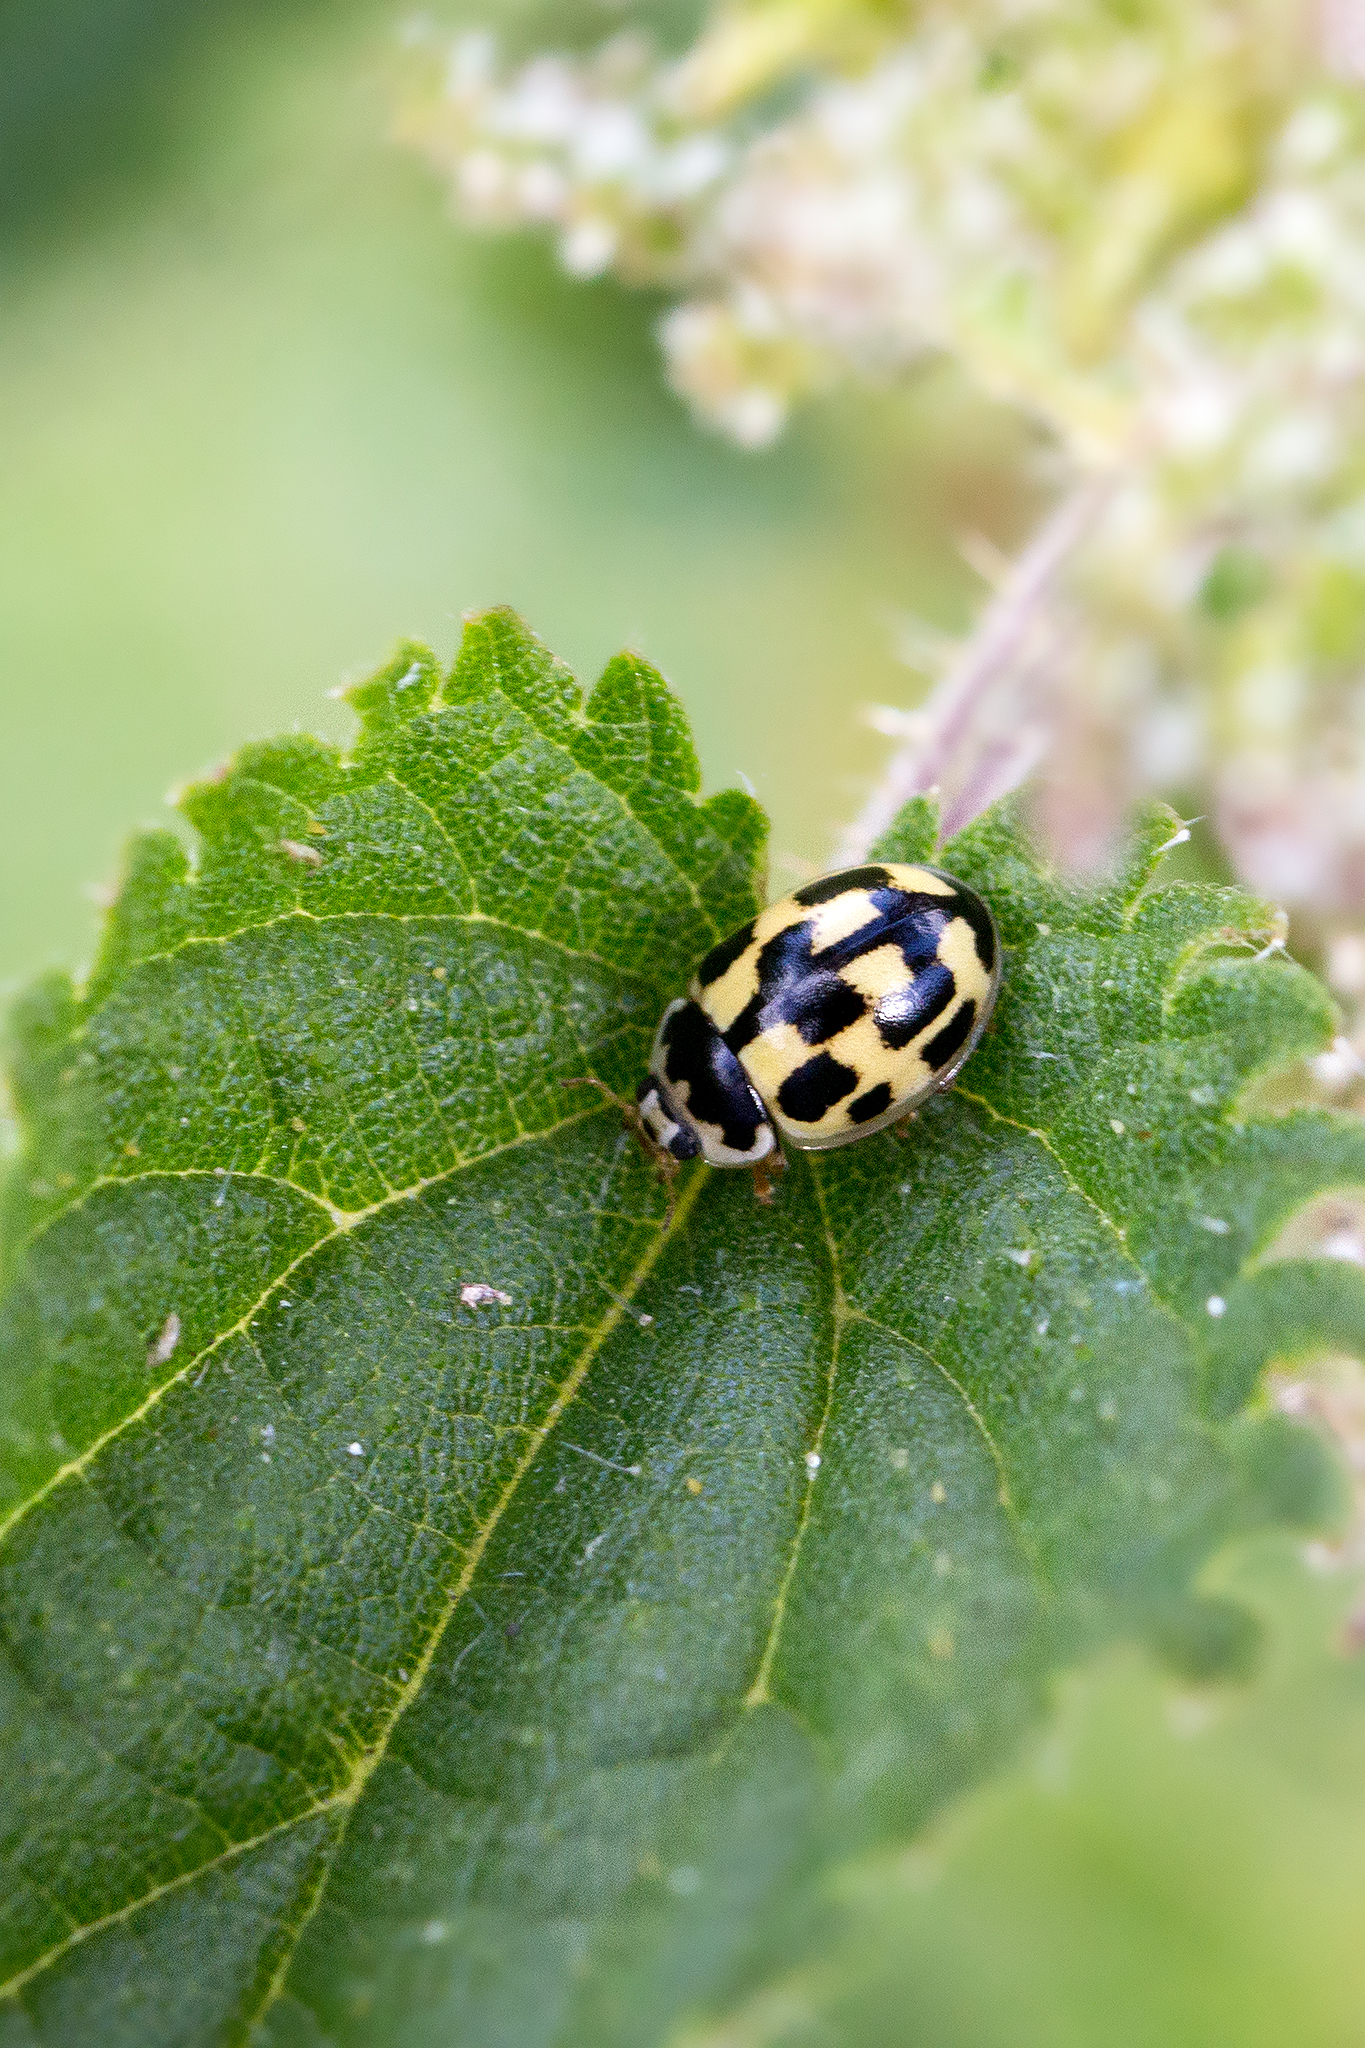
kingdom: Animalia
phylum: Arthropoda
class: Insecta
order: Coleoptera
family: Coccinellidae
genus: Propylaea
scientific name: Propylaea quatuordecimpunctata
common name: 14-spotted ladybird beetle
